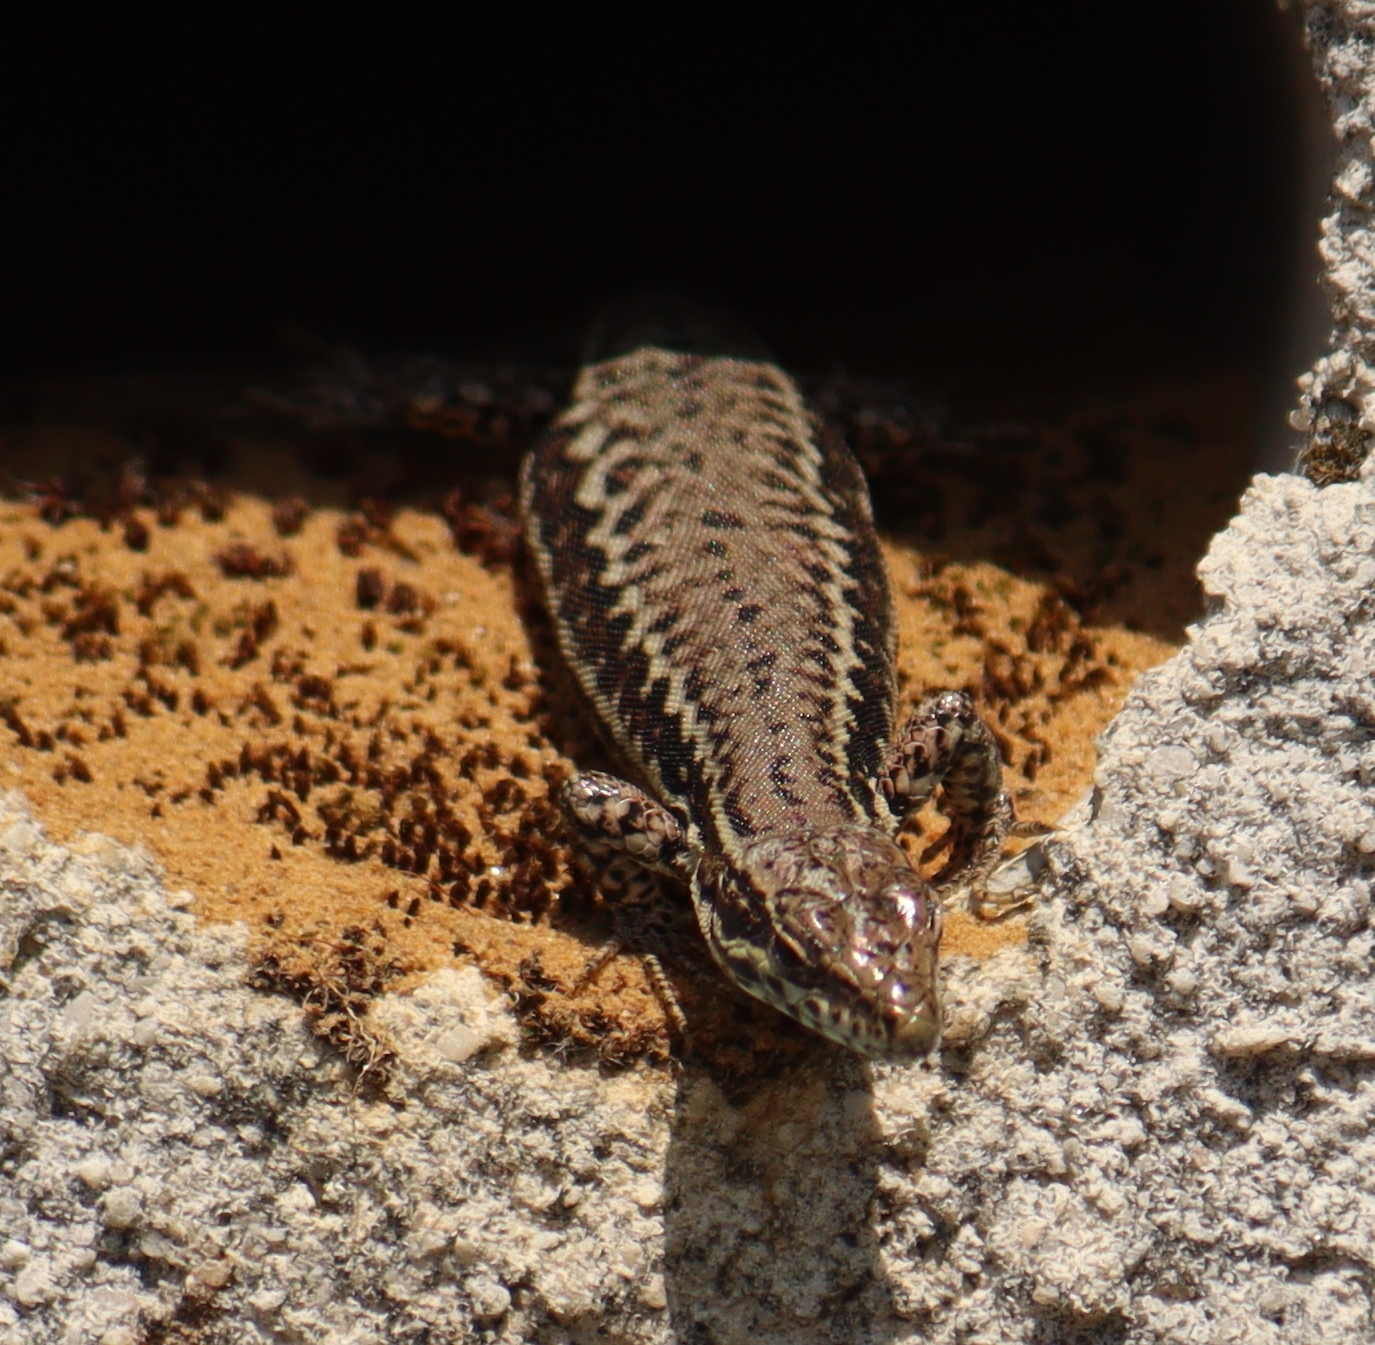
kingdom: Animalia
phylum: Chordata
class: Squamata
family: Lacertidae
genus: Podarcis
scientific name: Podarcis muralis
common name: Common wall lizard
